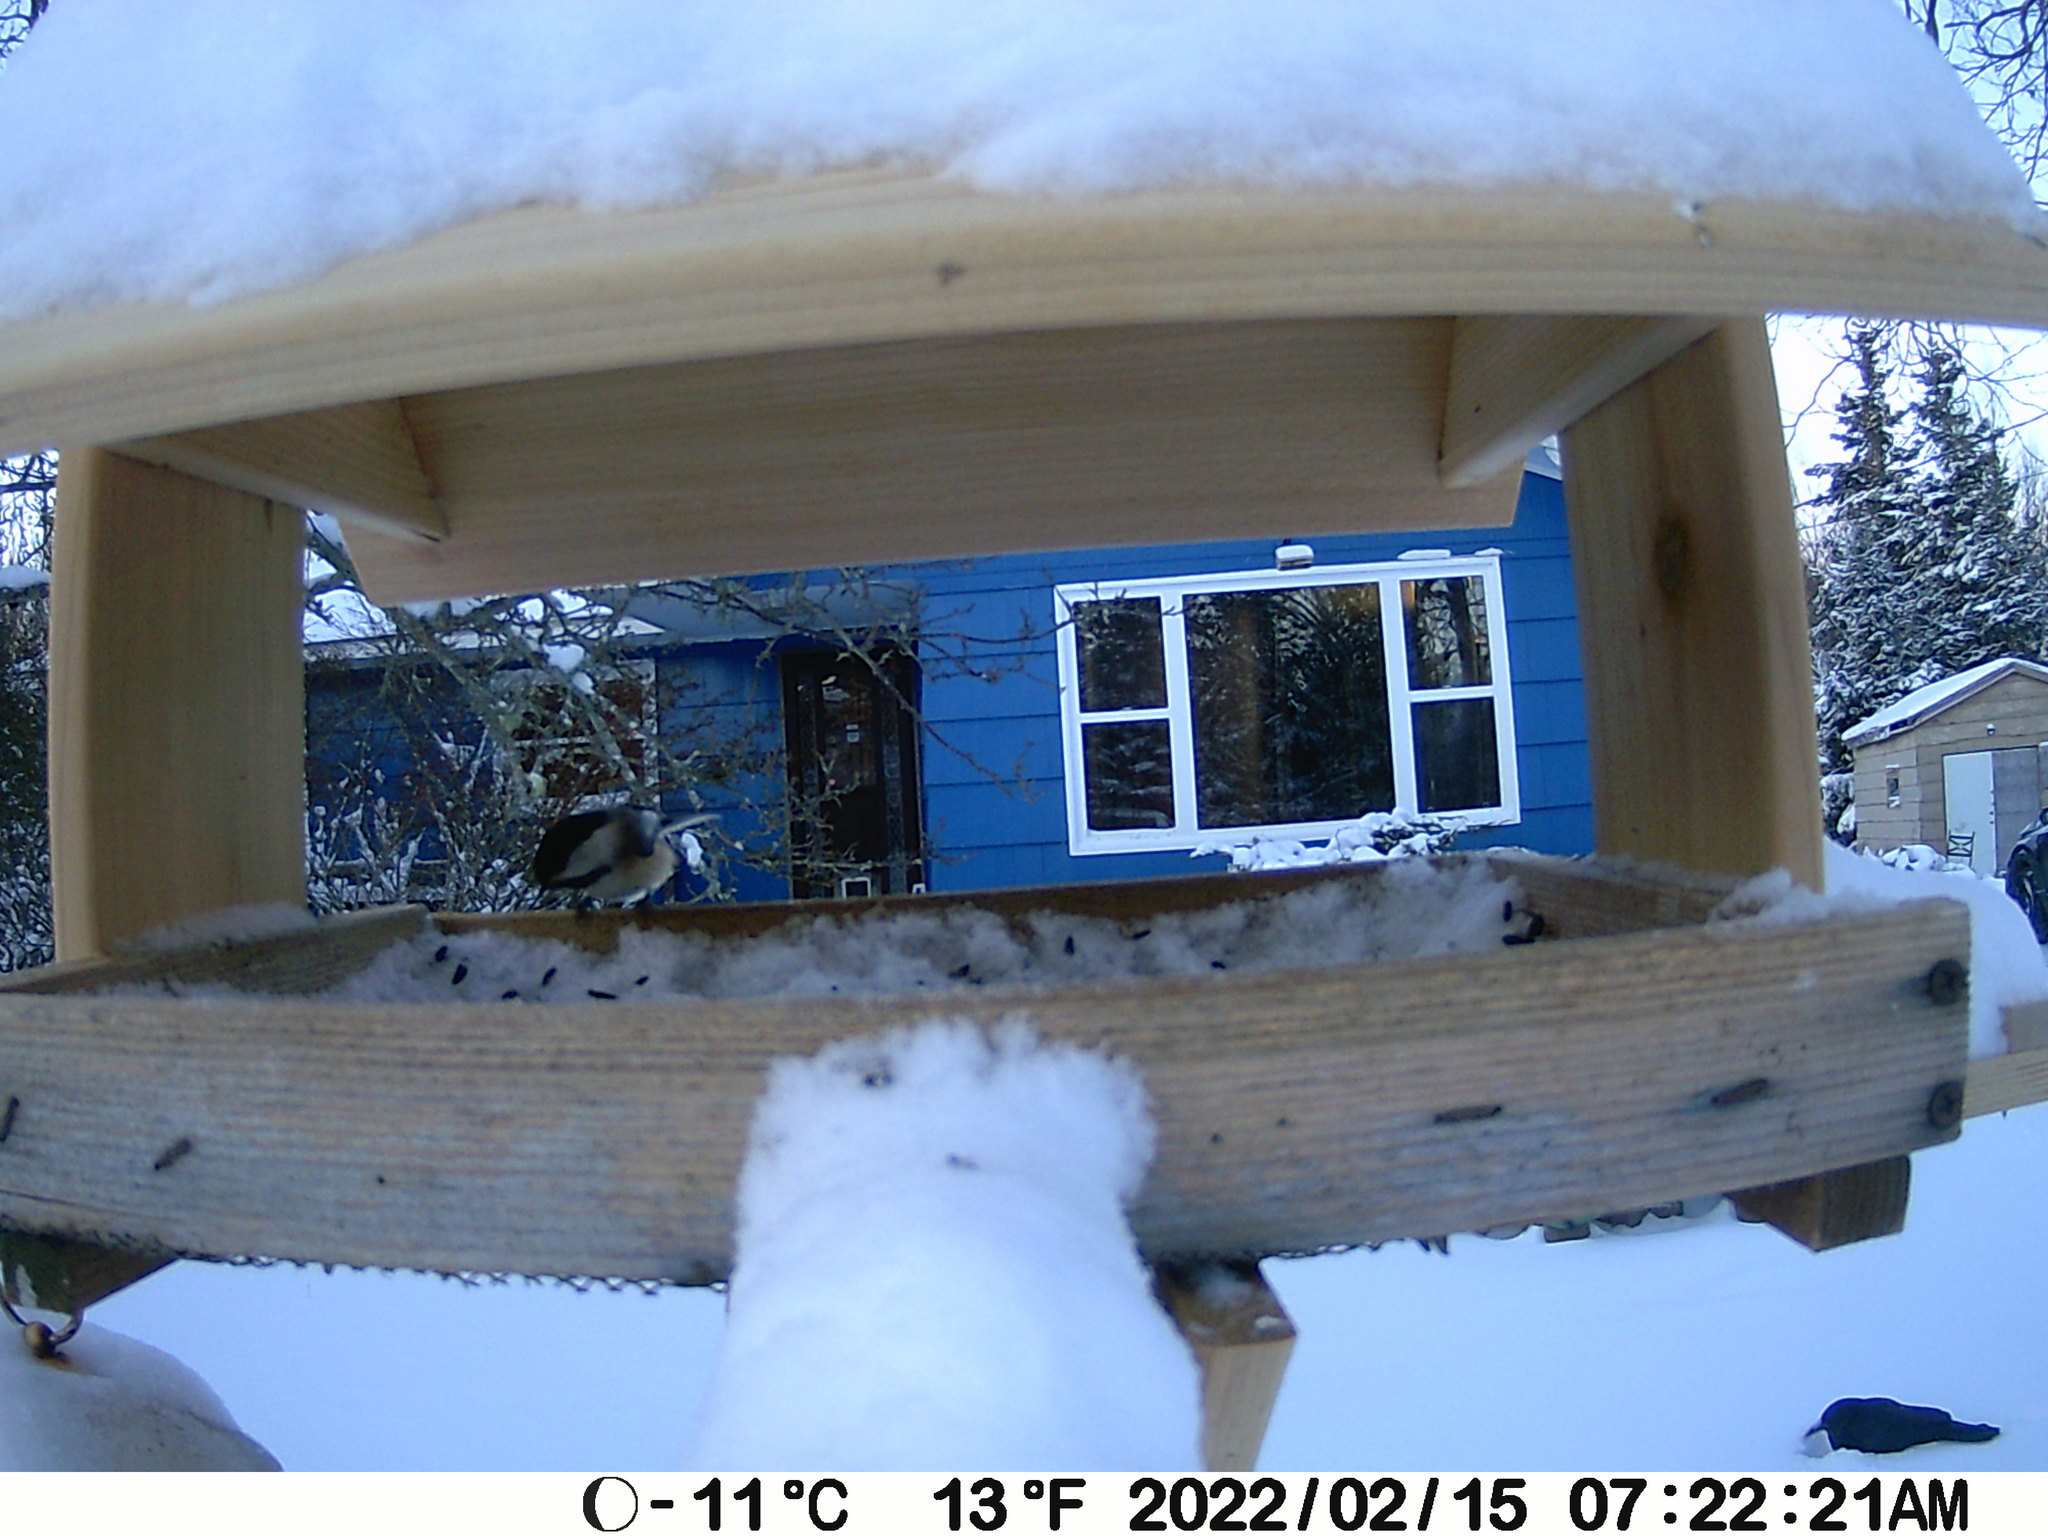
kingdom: Animalia
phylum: Chordata
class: Aves
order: Passeriformes
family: Corvidae
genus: Corvus
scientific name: Corvus brachyrhynchos
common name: American crow
